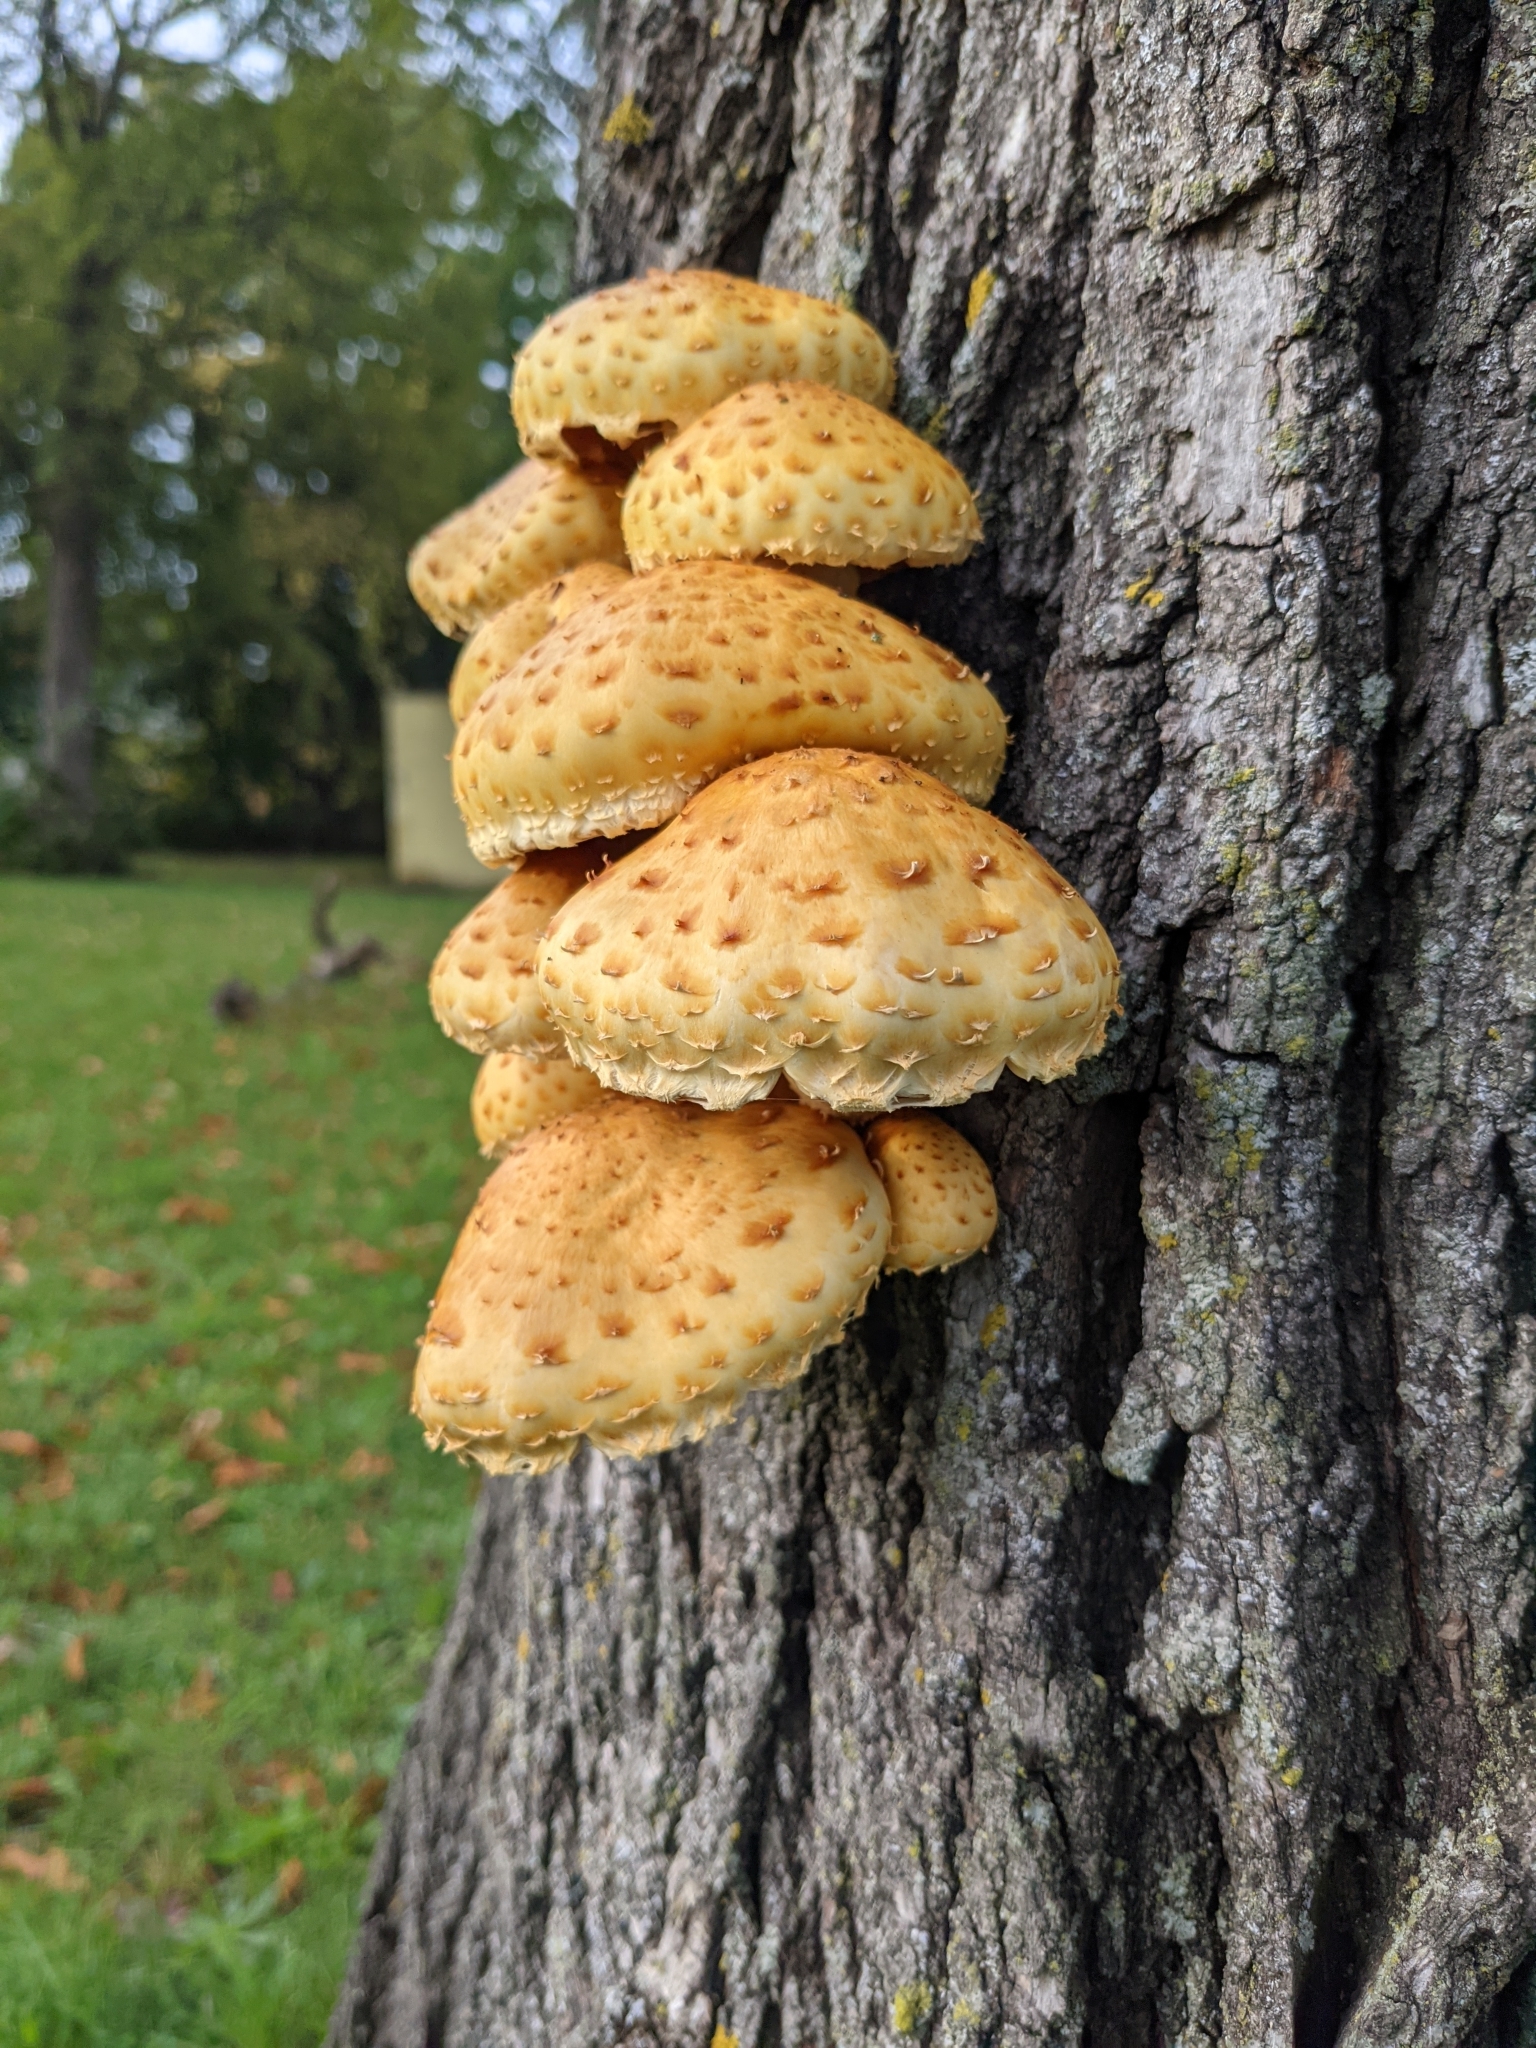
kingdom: Fungi
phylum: Basidiomycota
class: Agaricomycetes
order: Agaricales
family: Strophariaceae
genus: Pholiota
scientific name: Pholiota aurivella
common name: Golden scalycap
